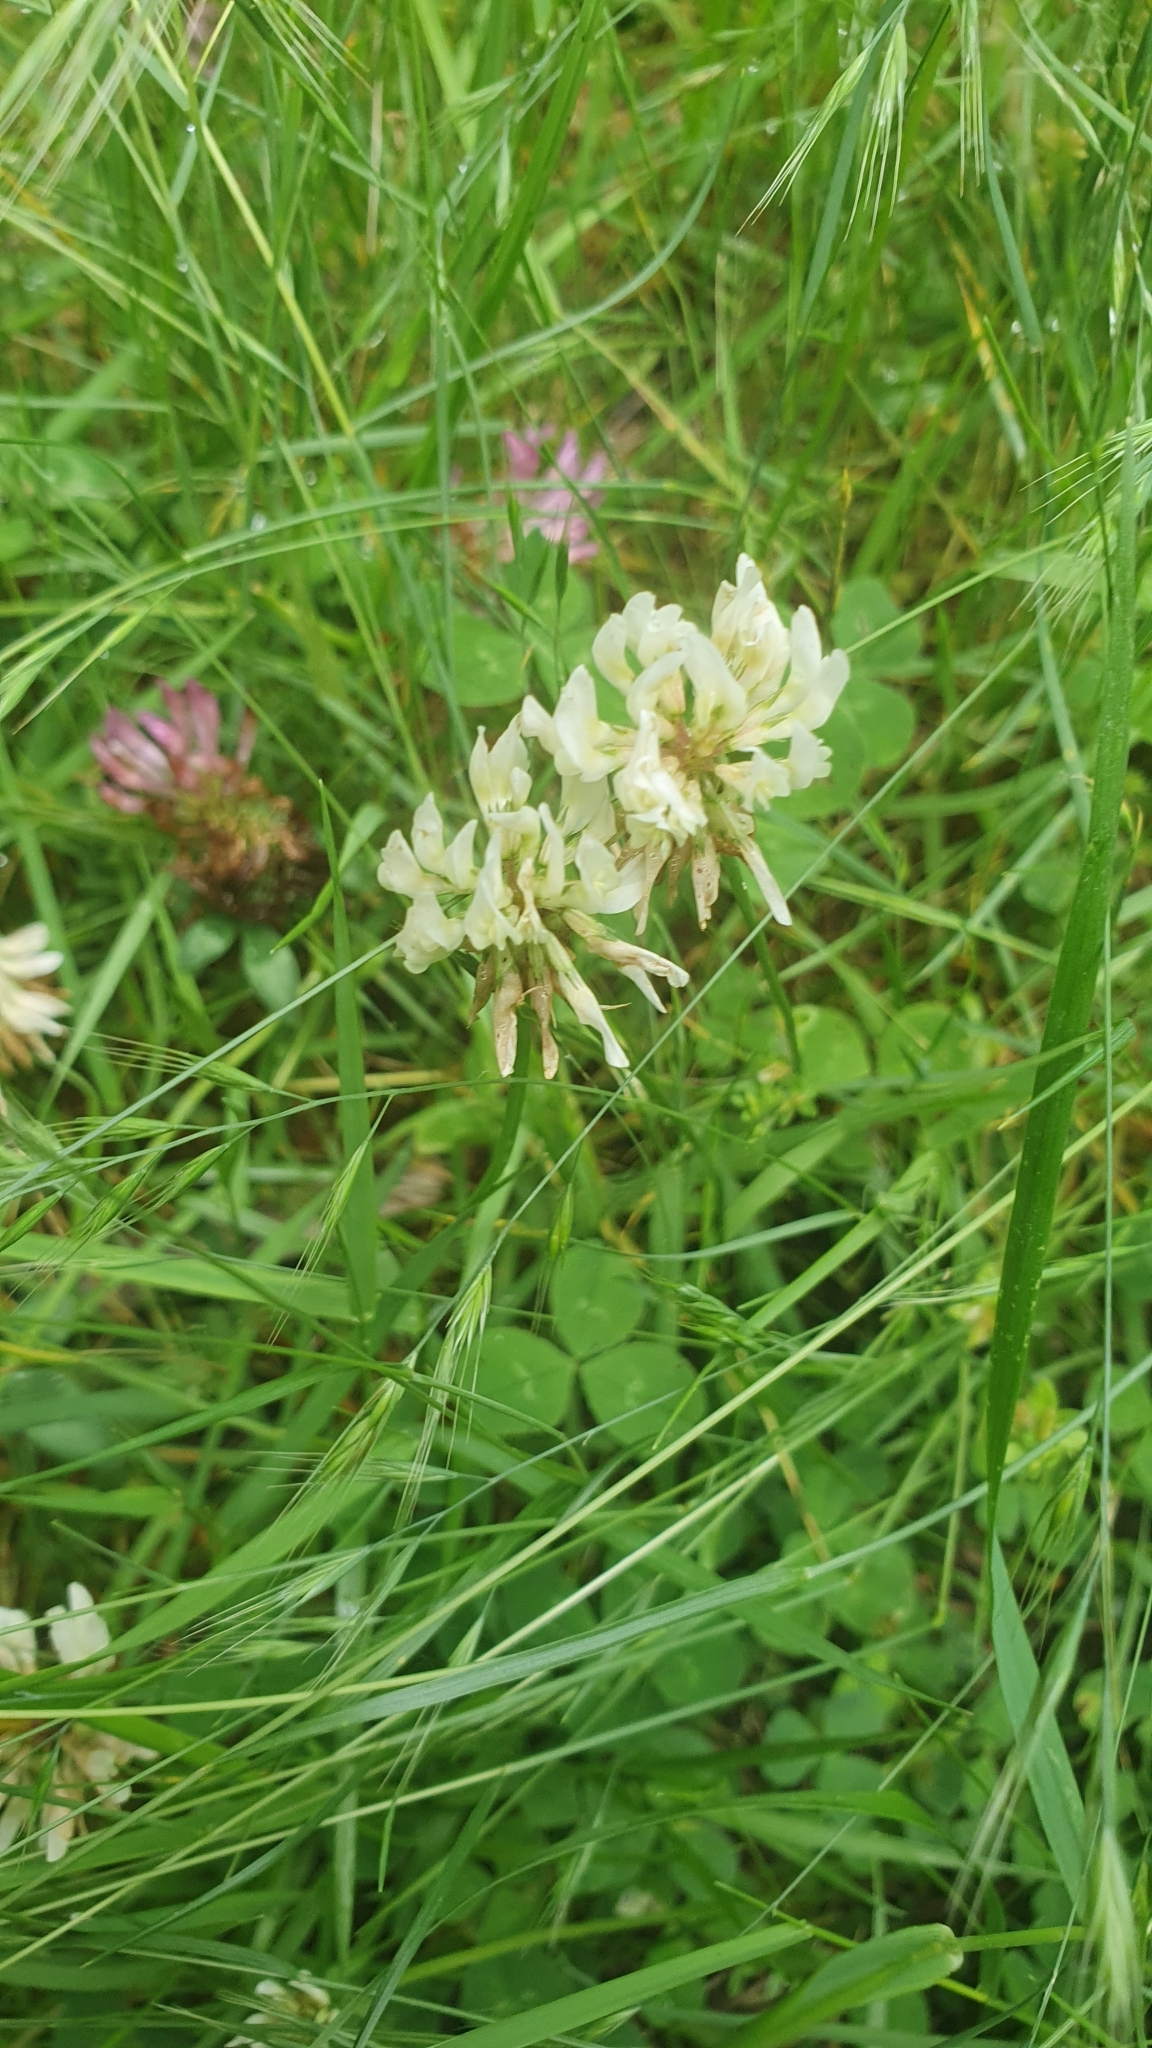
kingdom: Plantae
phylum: Tracheophyta
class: Magnoliopsida
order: Fabales
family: Fabaceae
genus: Trifolium
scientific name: Trifolium repens
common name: White clover
